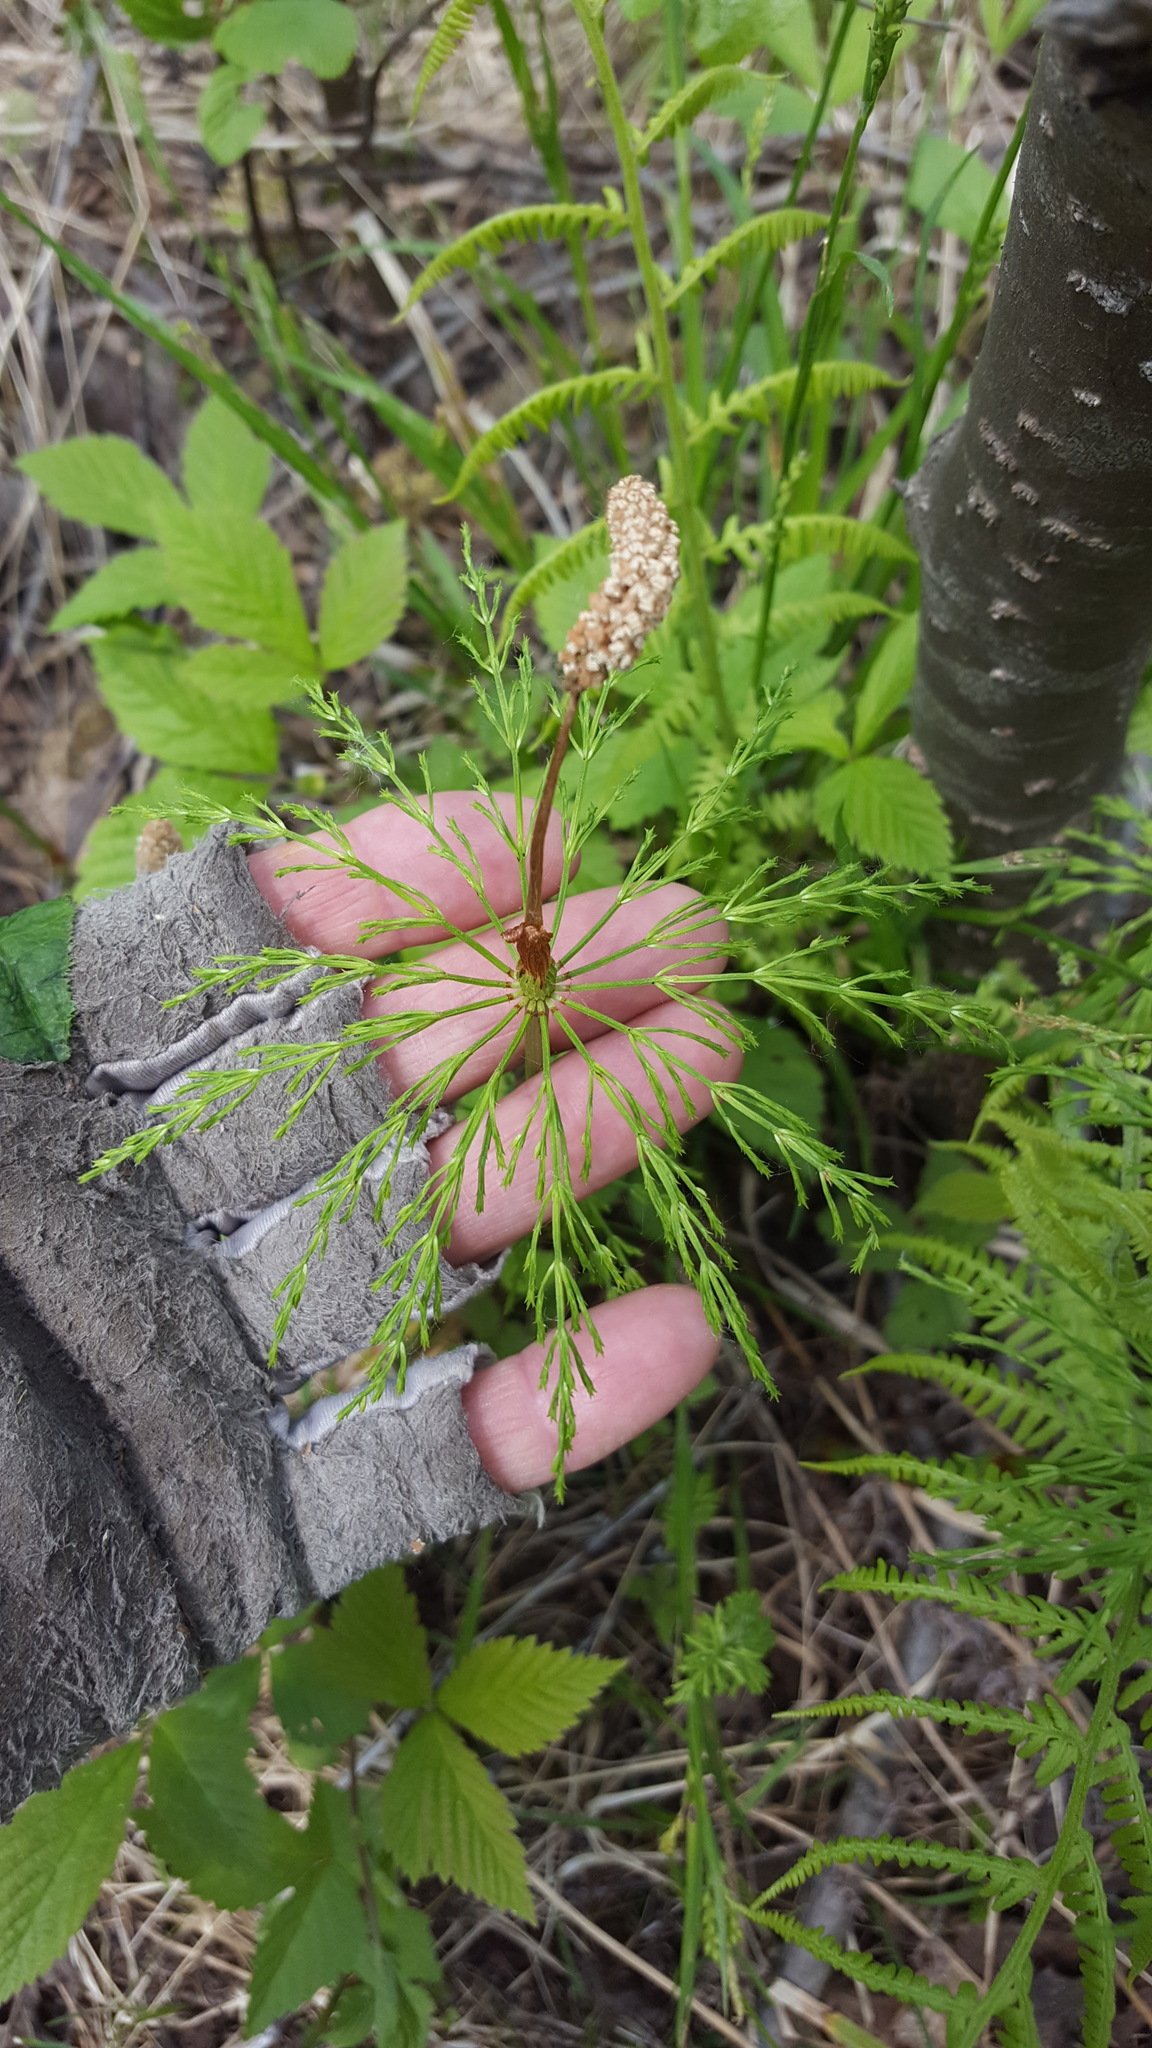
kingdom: Plantae
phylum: Tracheophyta
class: Polypodiopsida
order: Equisetales
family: Equisetaceae
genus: Equisetum
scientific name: Equisetum sylvaticum
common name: Wood horsetail
